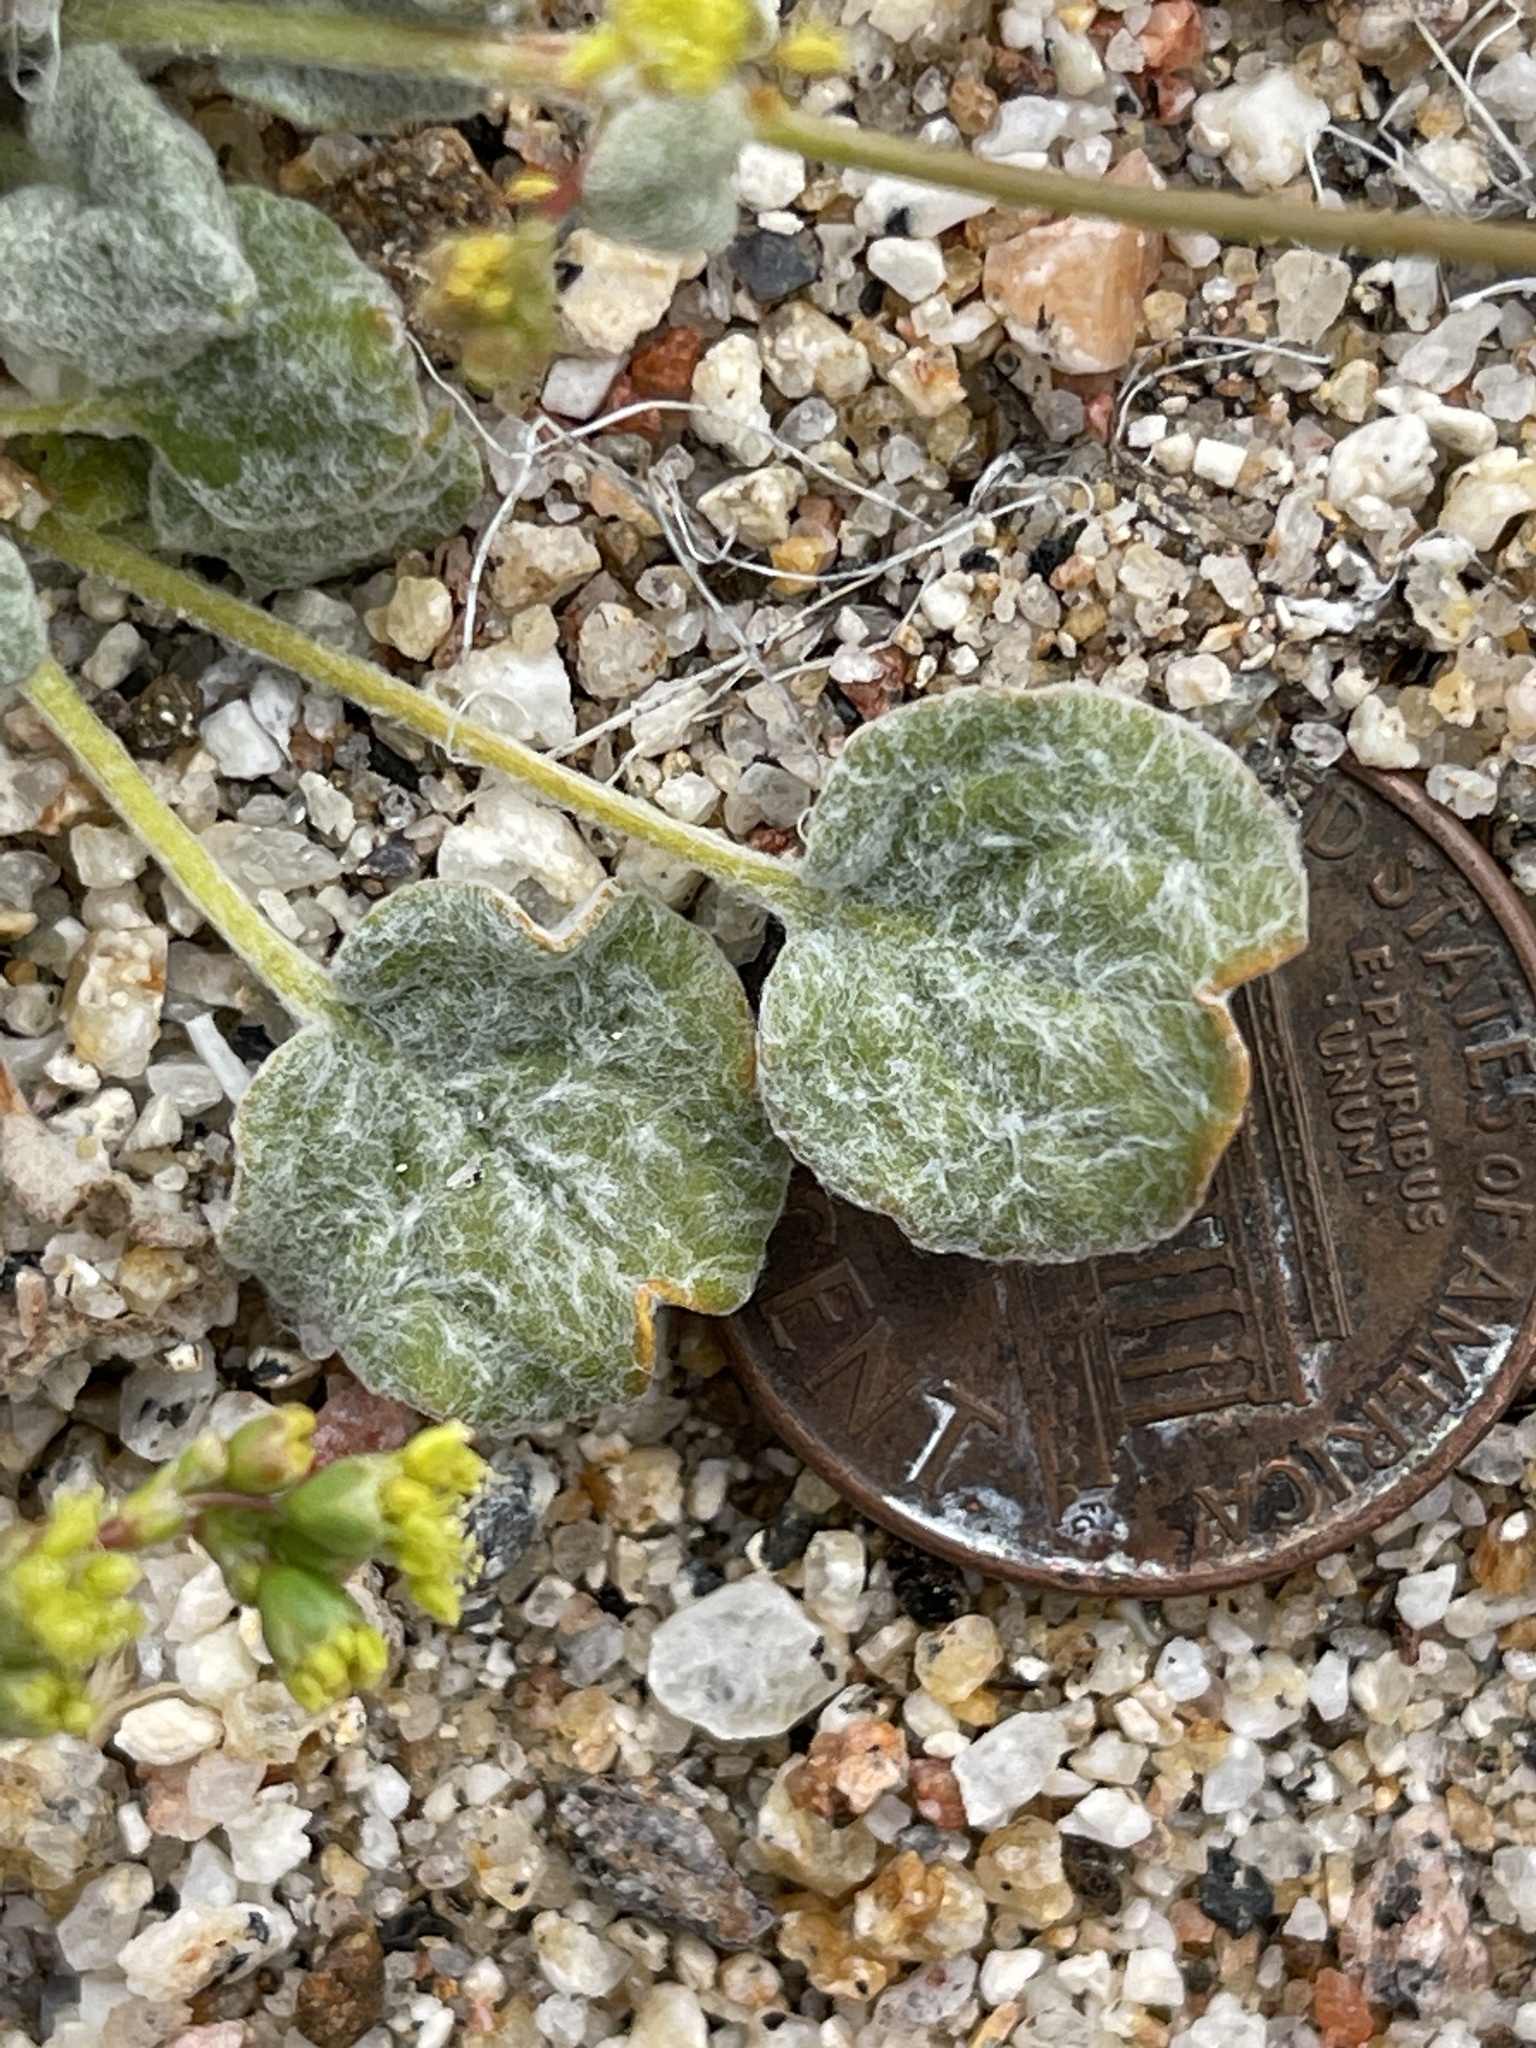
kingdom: Plantae
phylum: Tracheophyta
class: Magnoliopsida
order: Caryophyllales
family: Polygonaceae
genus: Eriogonum
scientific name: Eriogonum reniforme
